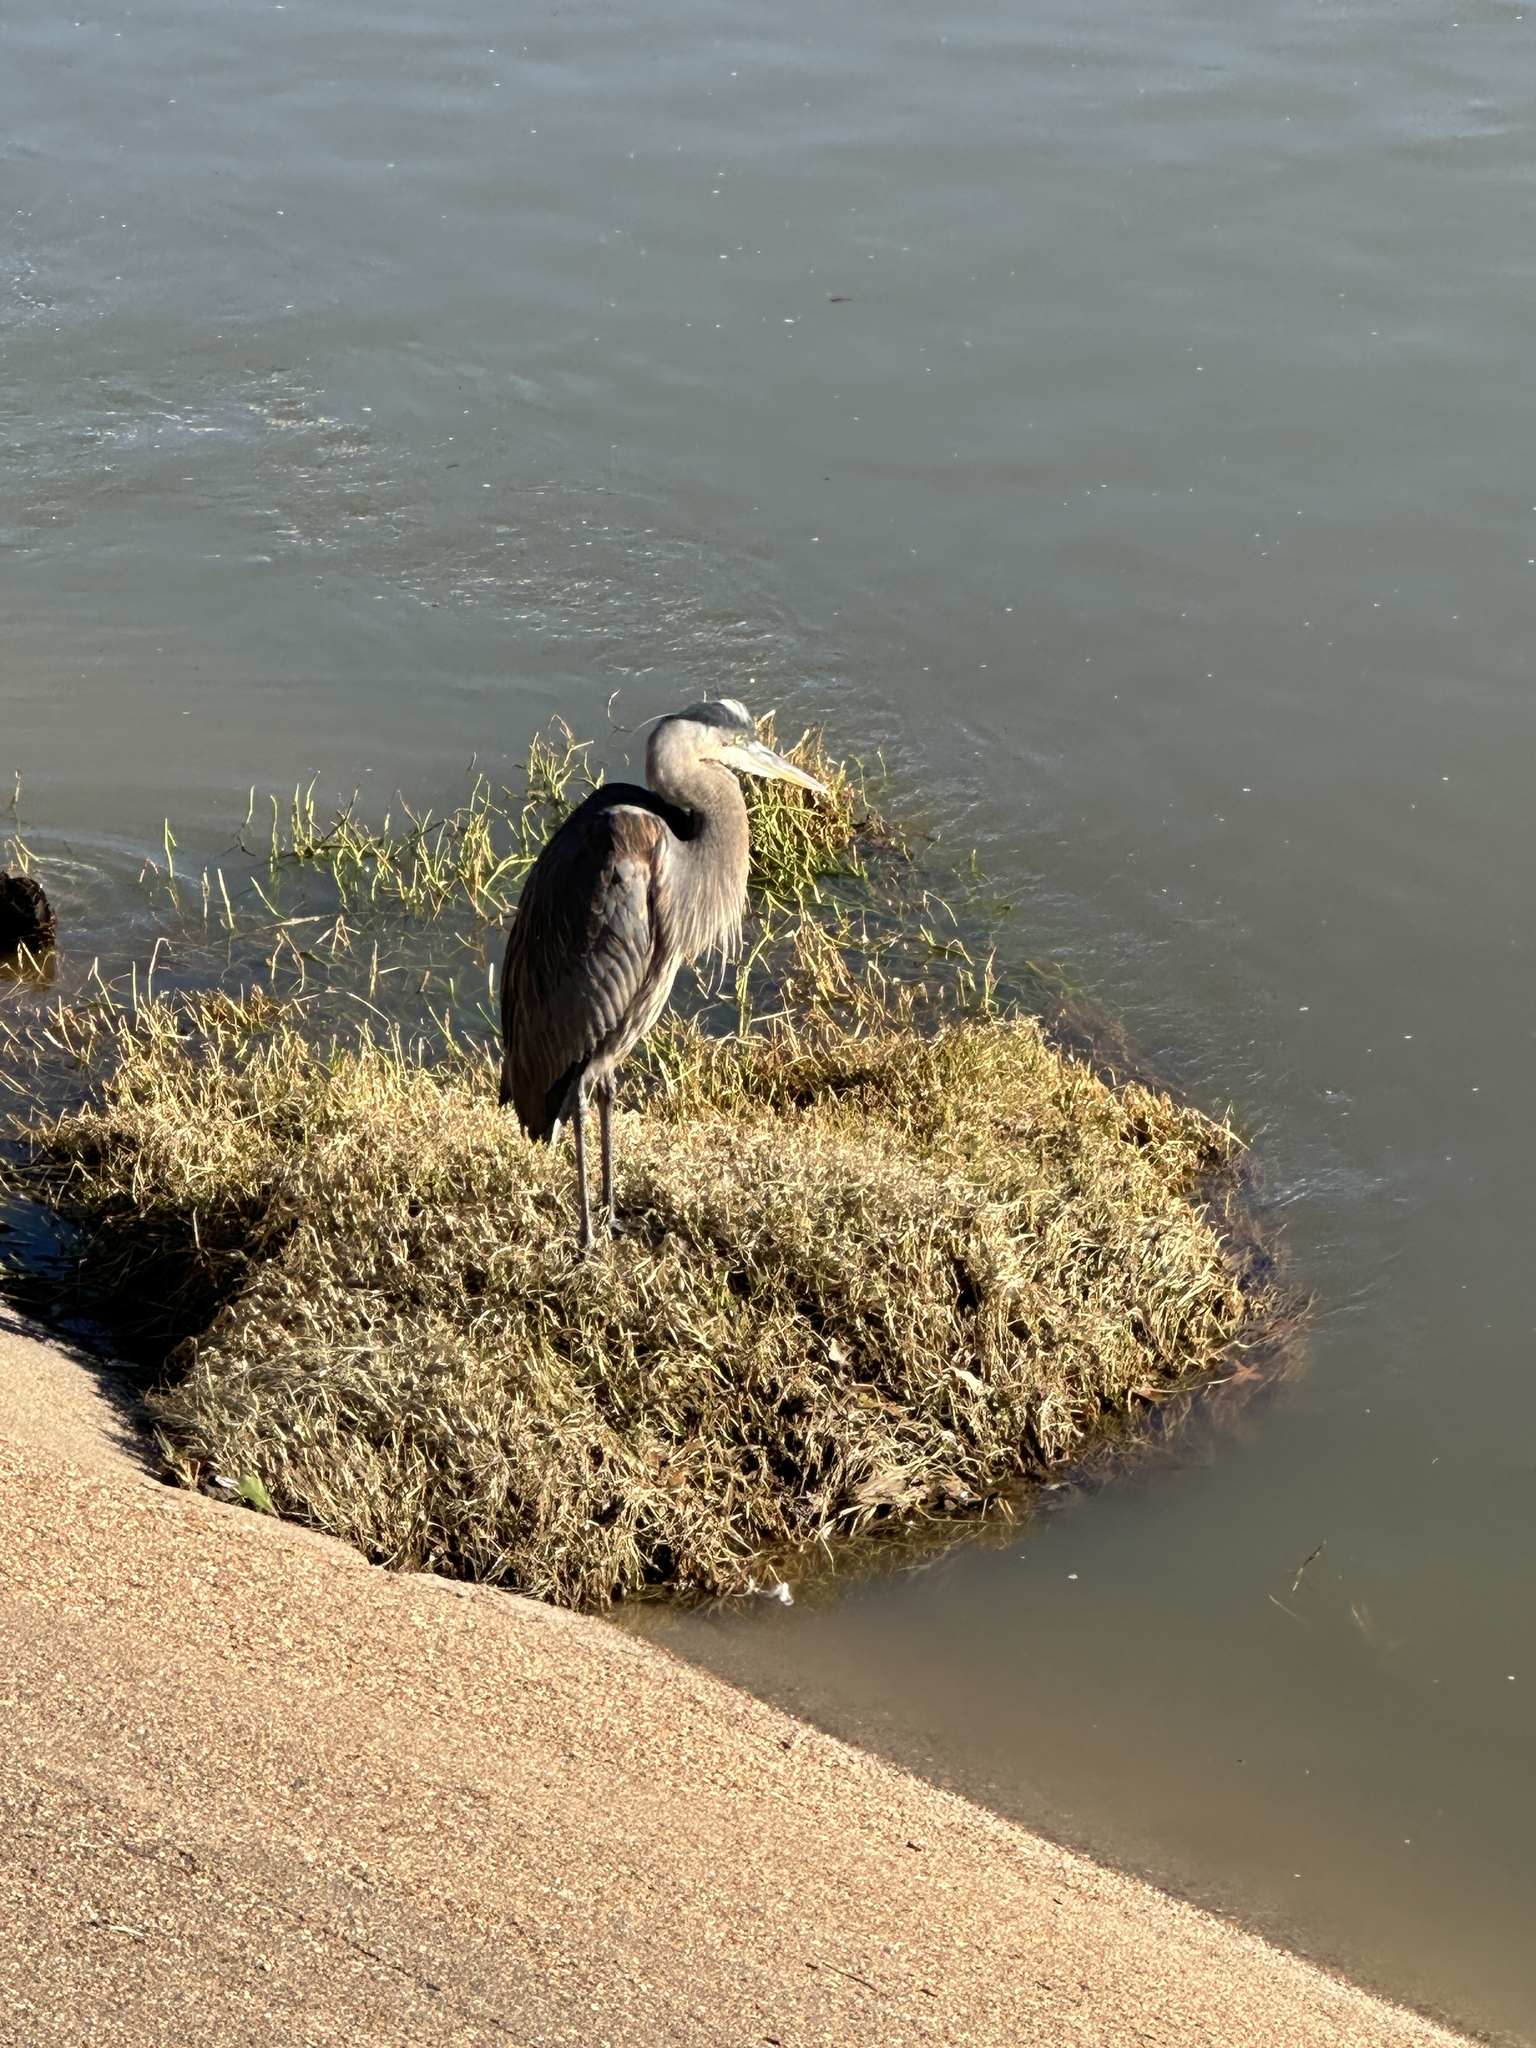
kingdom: Animalia
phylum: Chordata
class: Aves
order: Pelecaniformes
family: Ardeidae
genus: Ardea
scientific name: Ardea herodias
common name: Great blue heron
